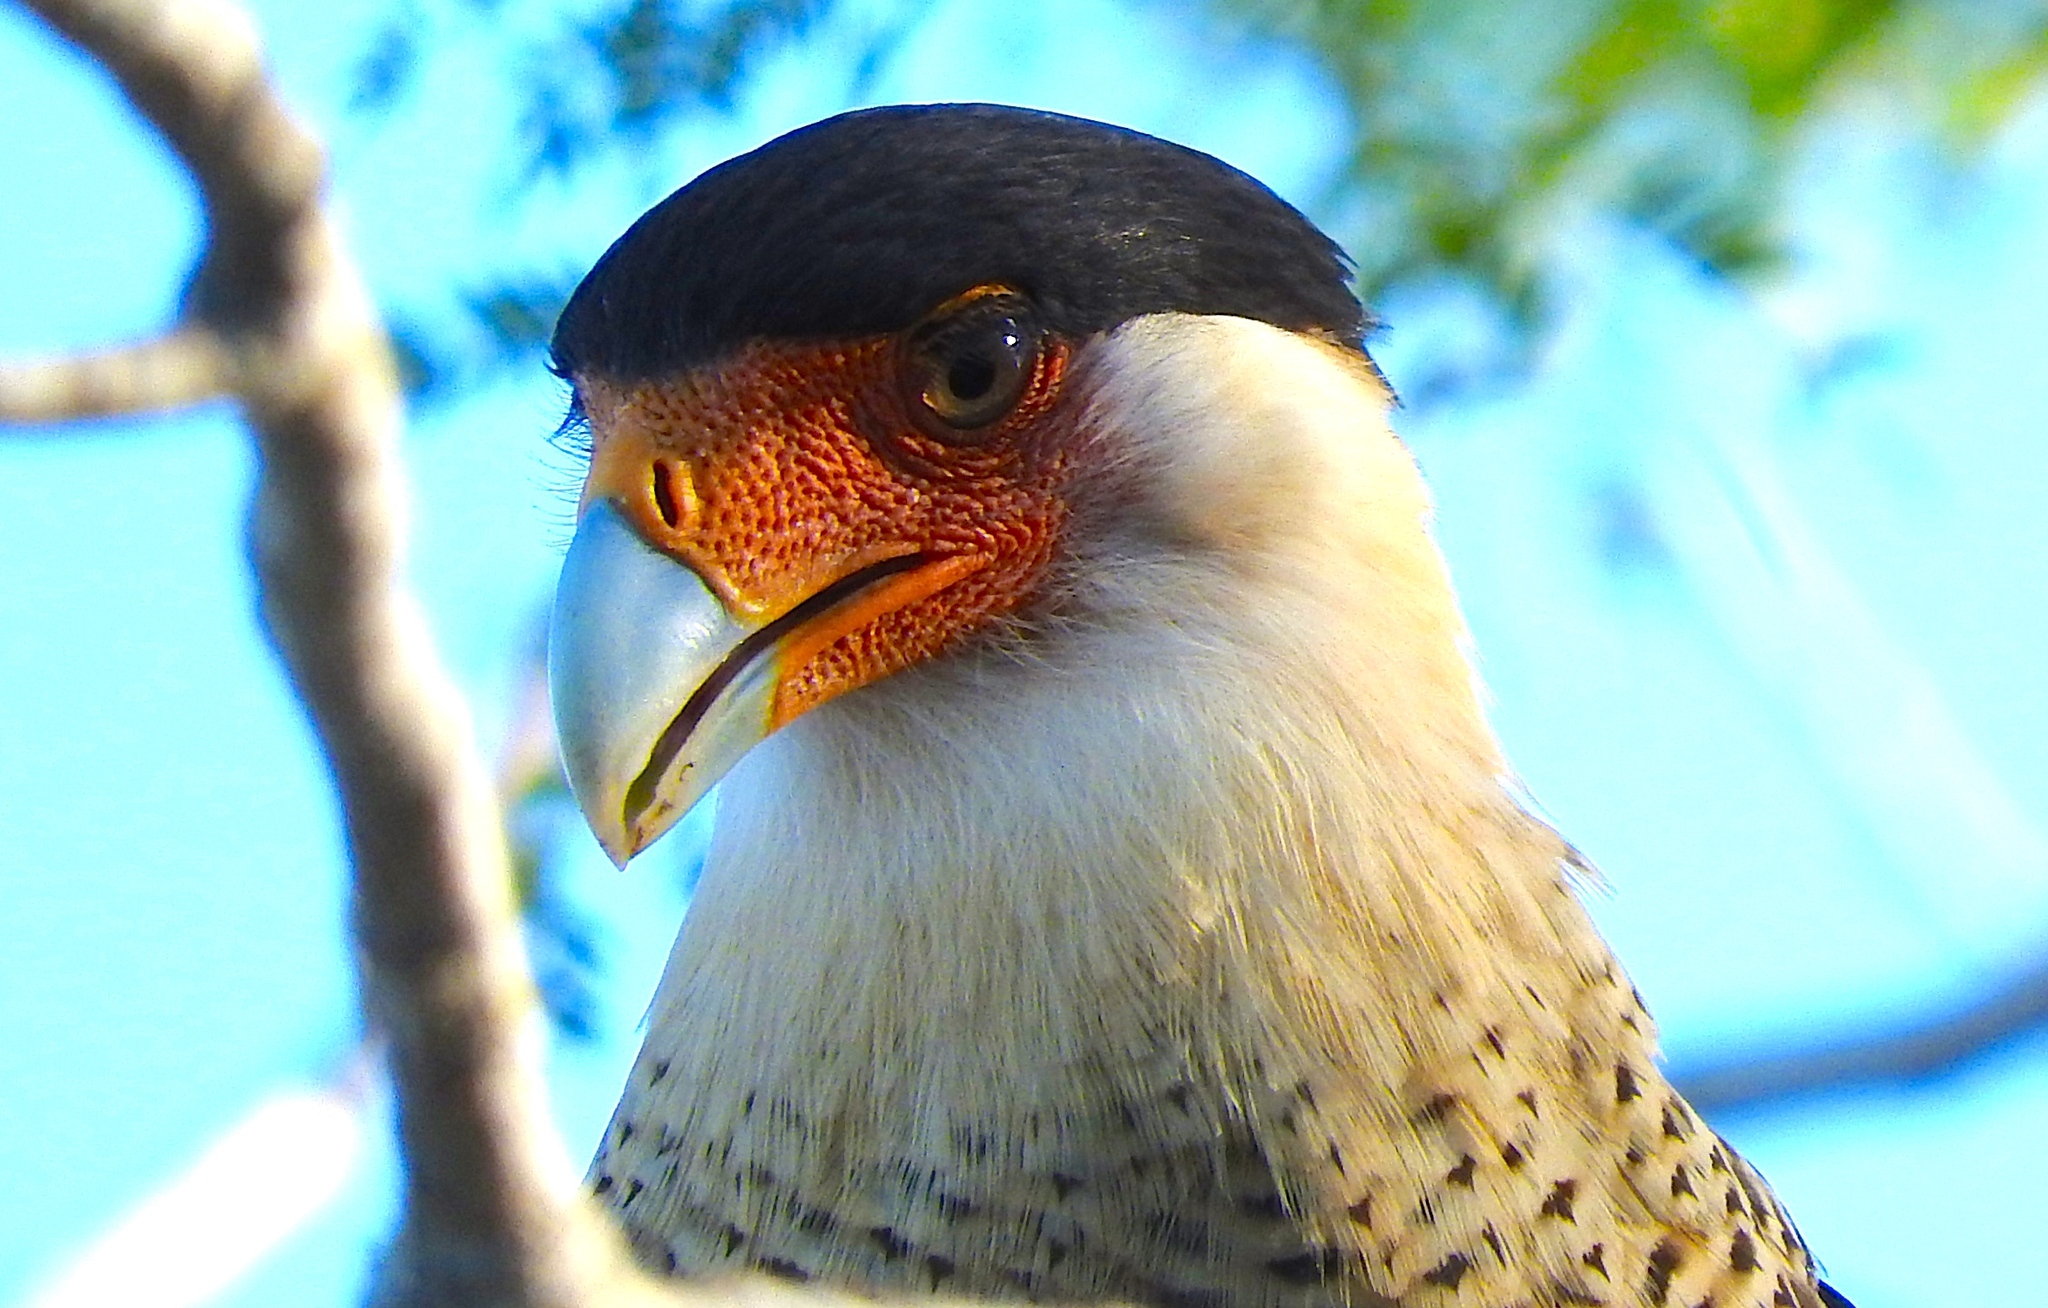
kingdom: Animalia
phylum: Chordata
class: Aves
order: Falconiformes
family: Falconidae
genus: Caracara
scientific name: Caracara plancus
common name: Southern caracara
